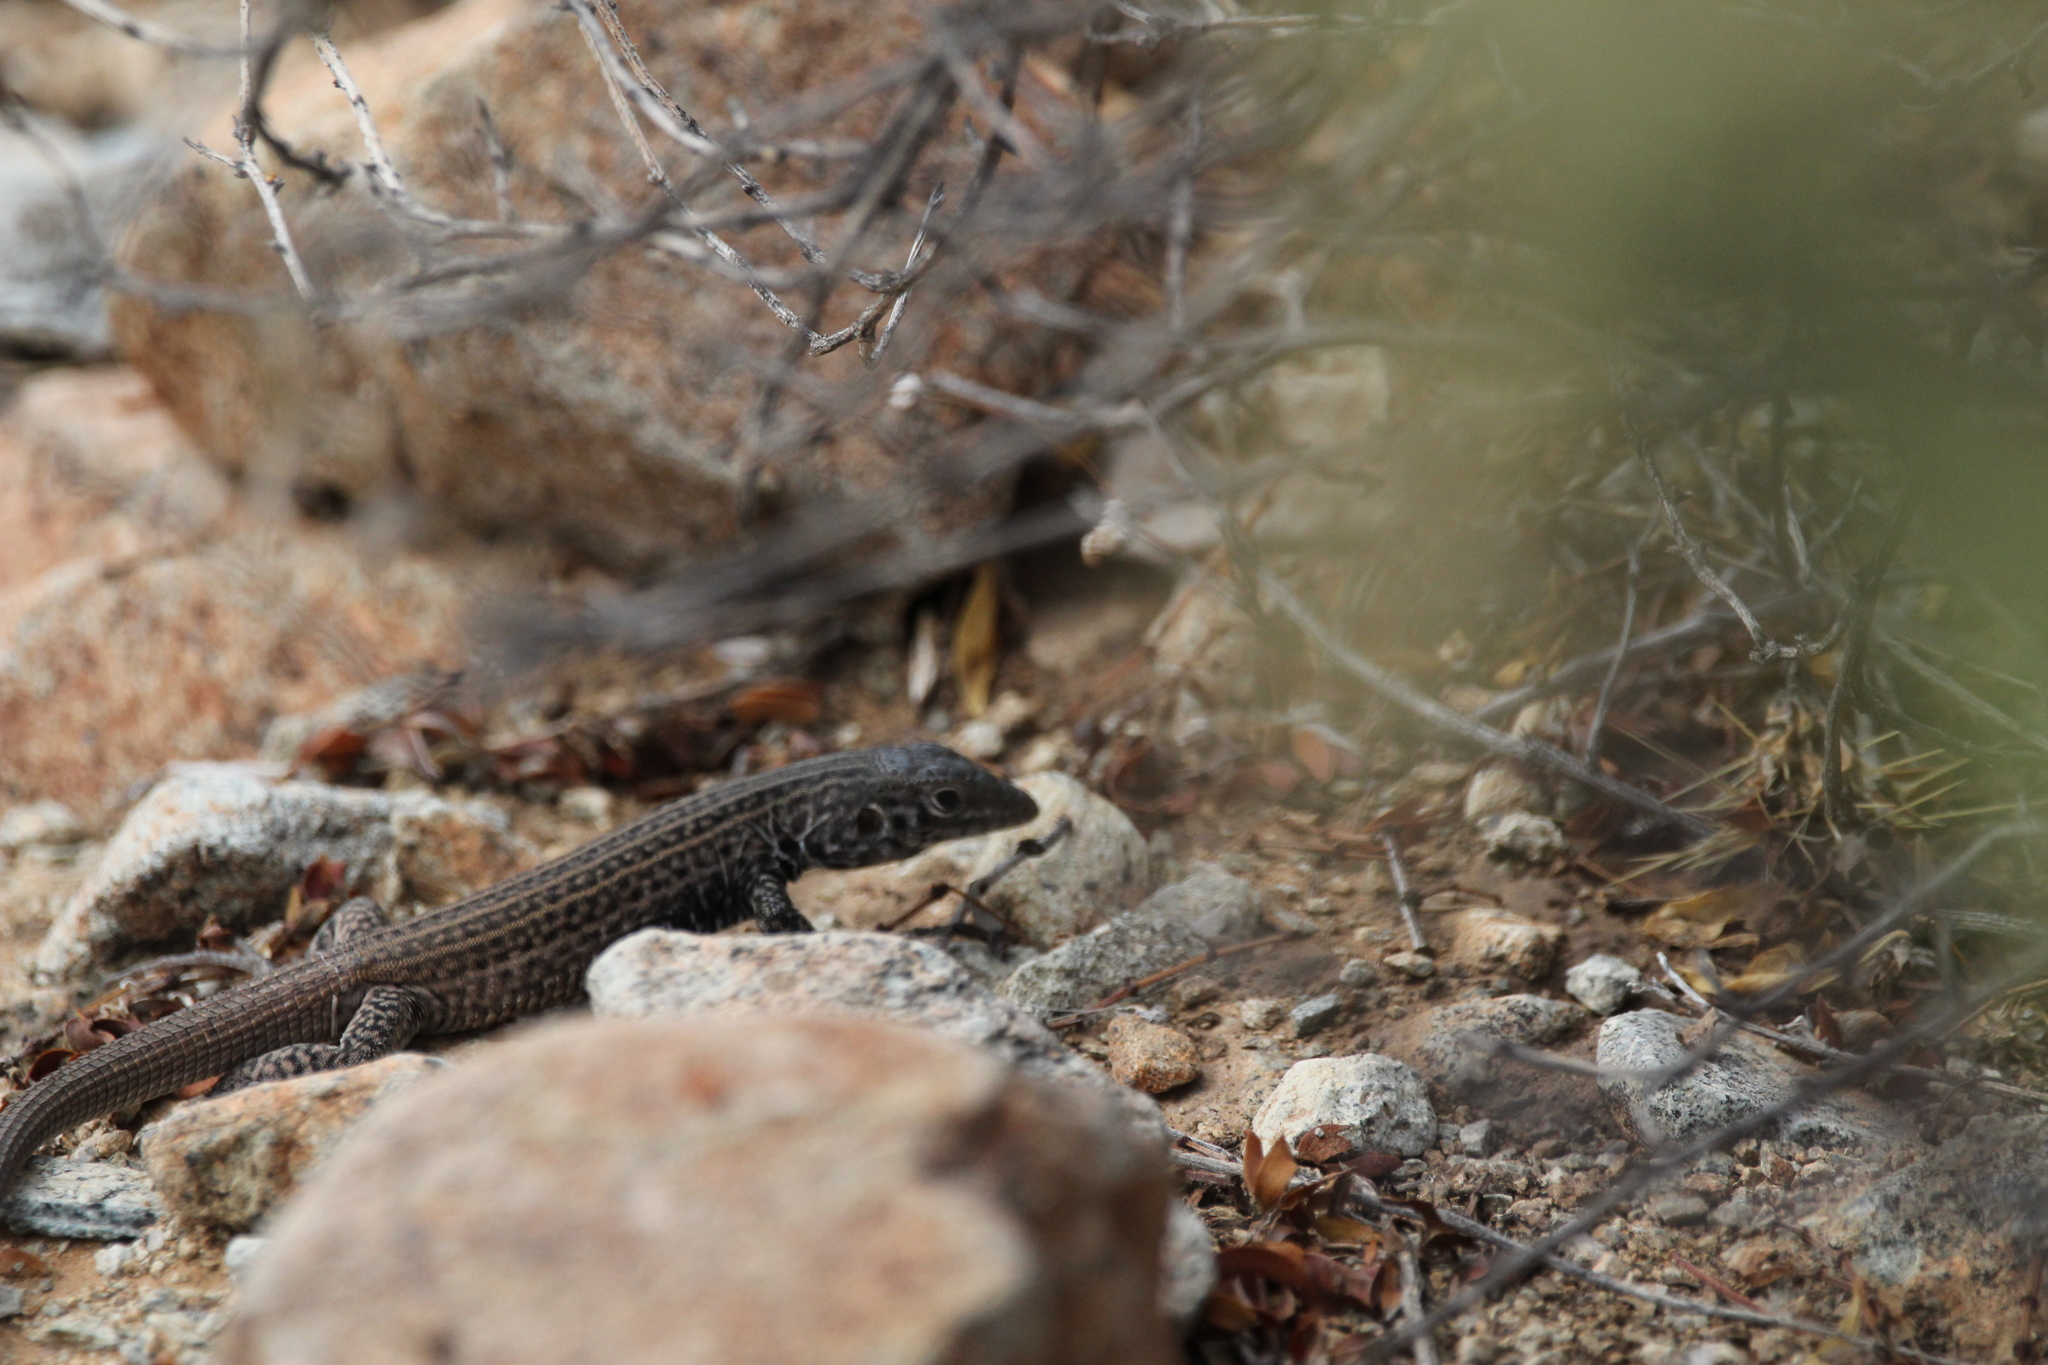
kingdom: Animalia
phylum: Chordata
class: Squamata
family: Teiidae
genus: Aspidoscelis
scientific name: Aspidoscelis tigris
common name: Tiger whiptail
